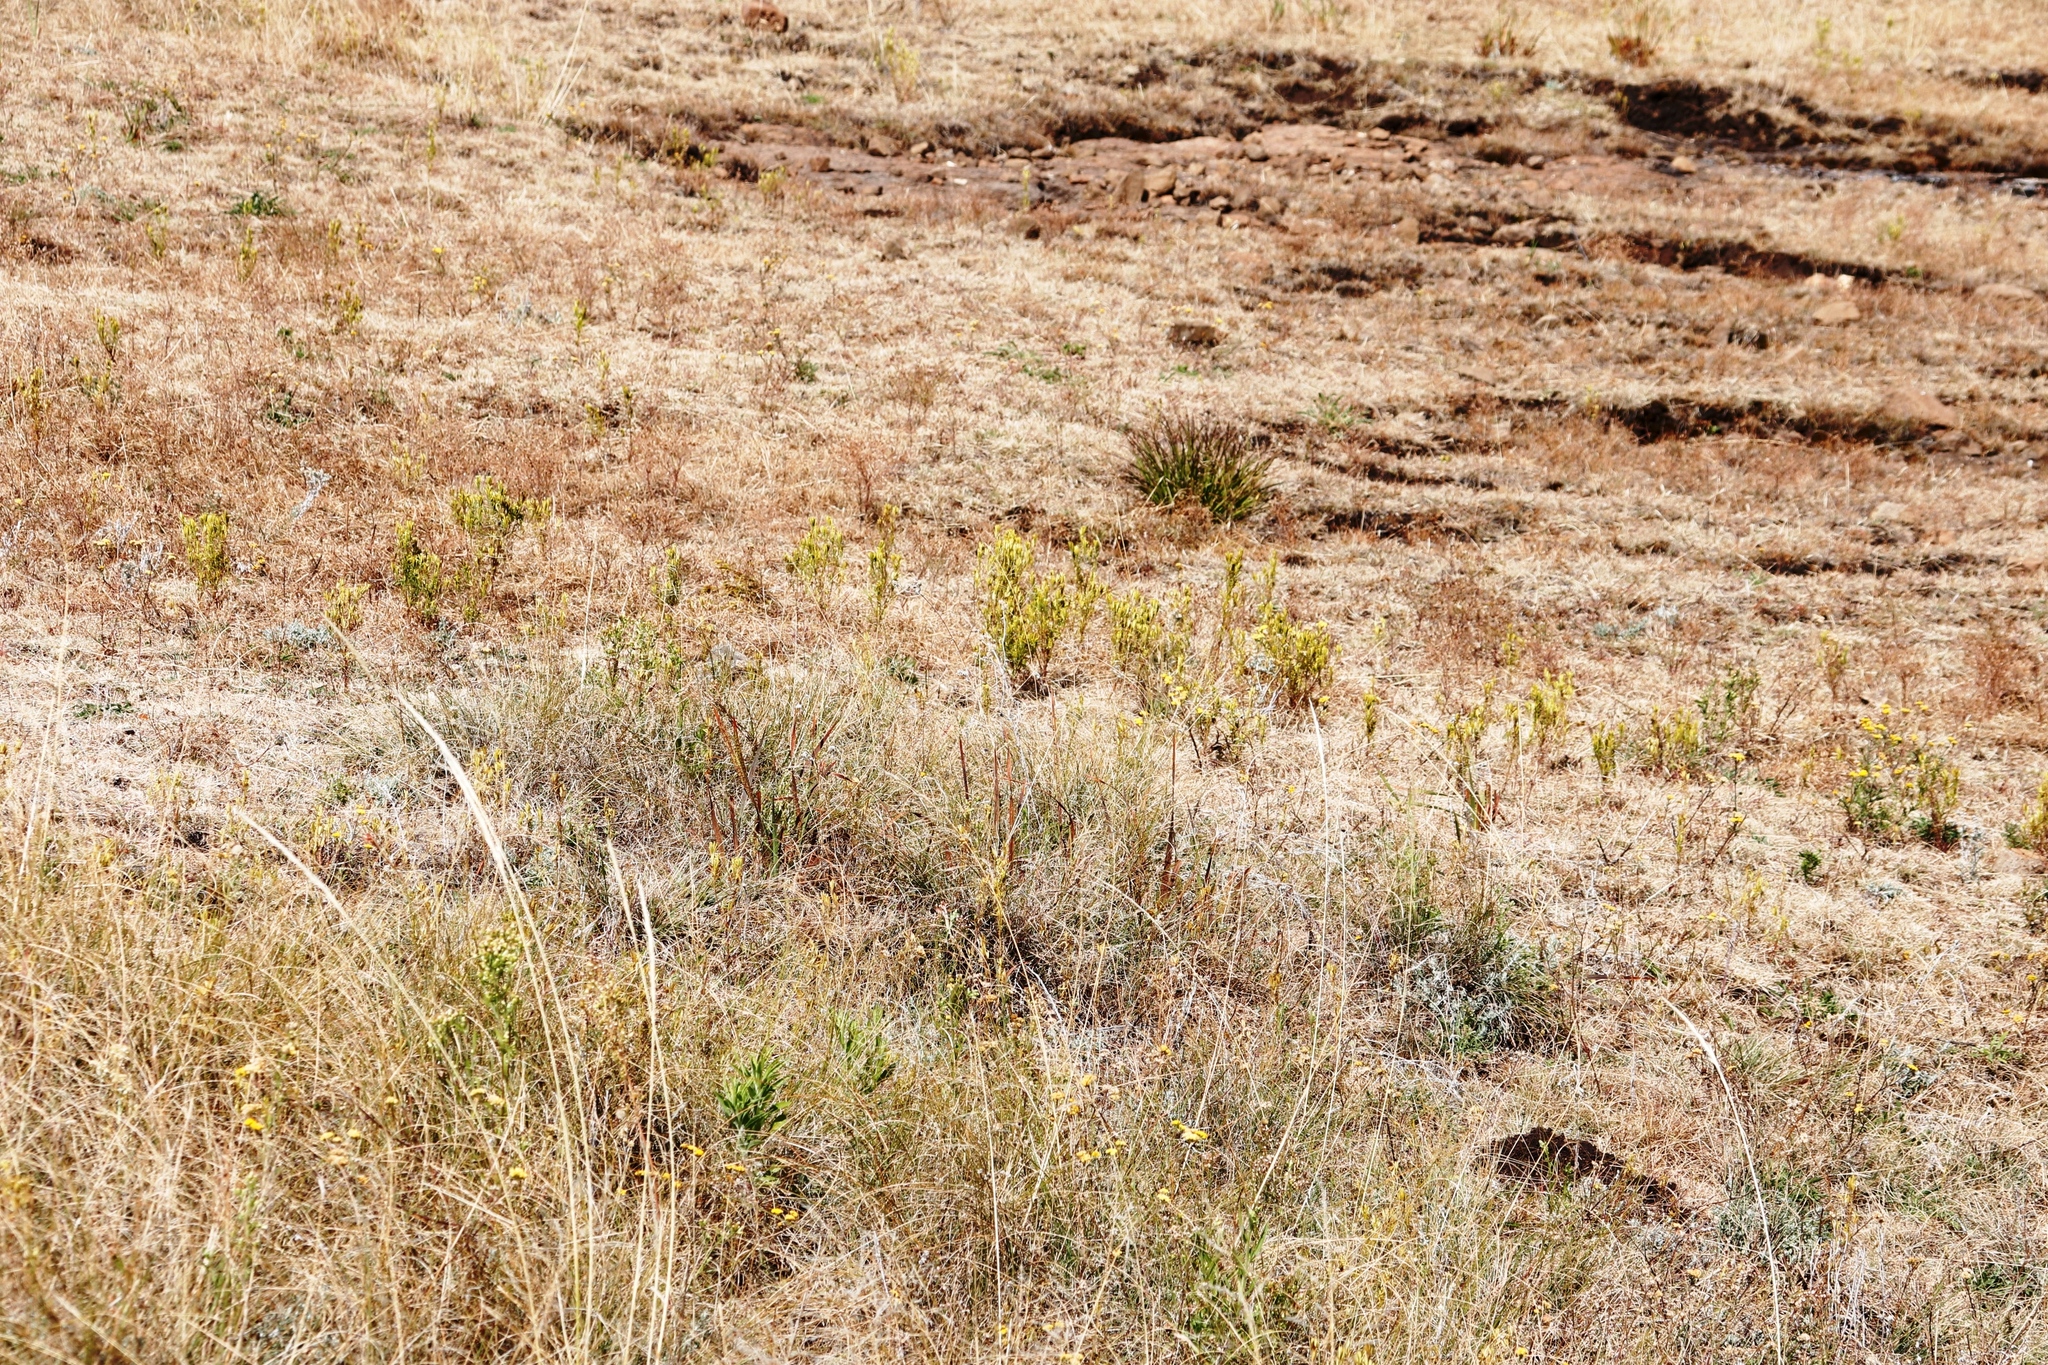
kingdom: Plantae
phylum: Tracheophyta
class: Magnoliopsida
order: Asterales
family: Asteraceae
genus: Tagetes
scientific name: Tagetes minuta
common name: Muster john henry
